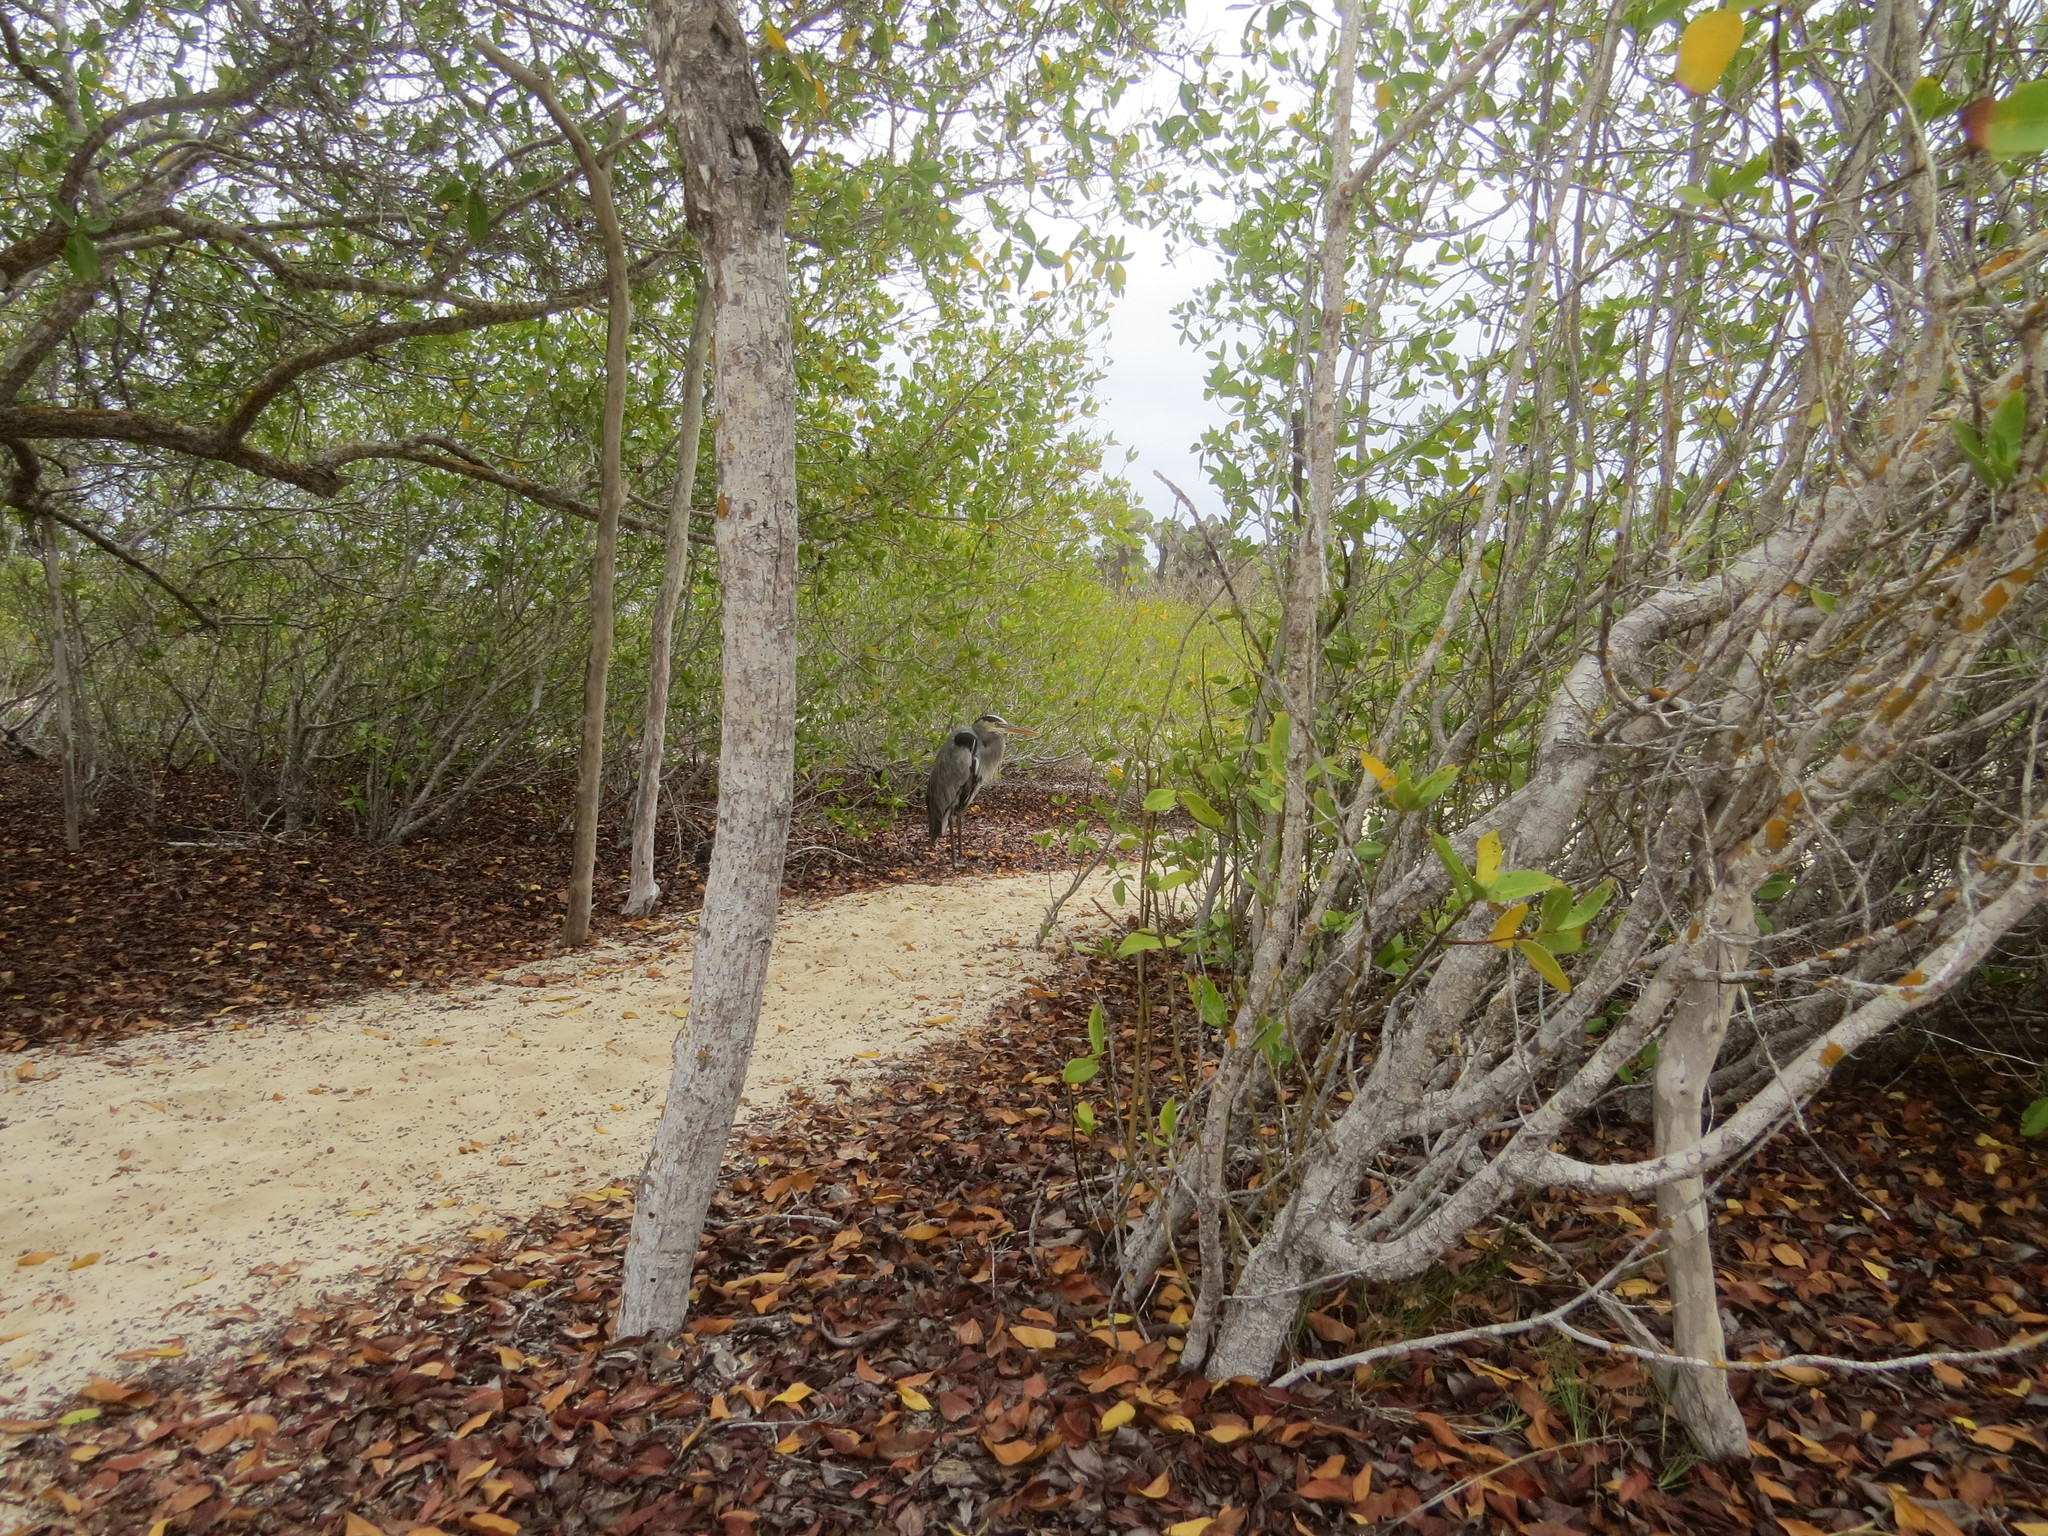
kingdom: Animalia
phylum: Chordata
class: Aves
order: Pelecaniformes
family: Ardeidae
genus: Ardea
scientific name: Ardea herodias
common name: Great blue heron
